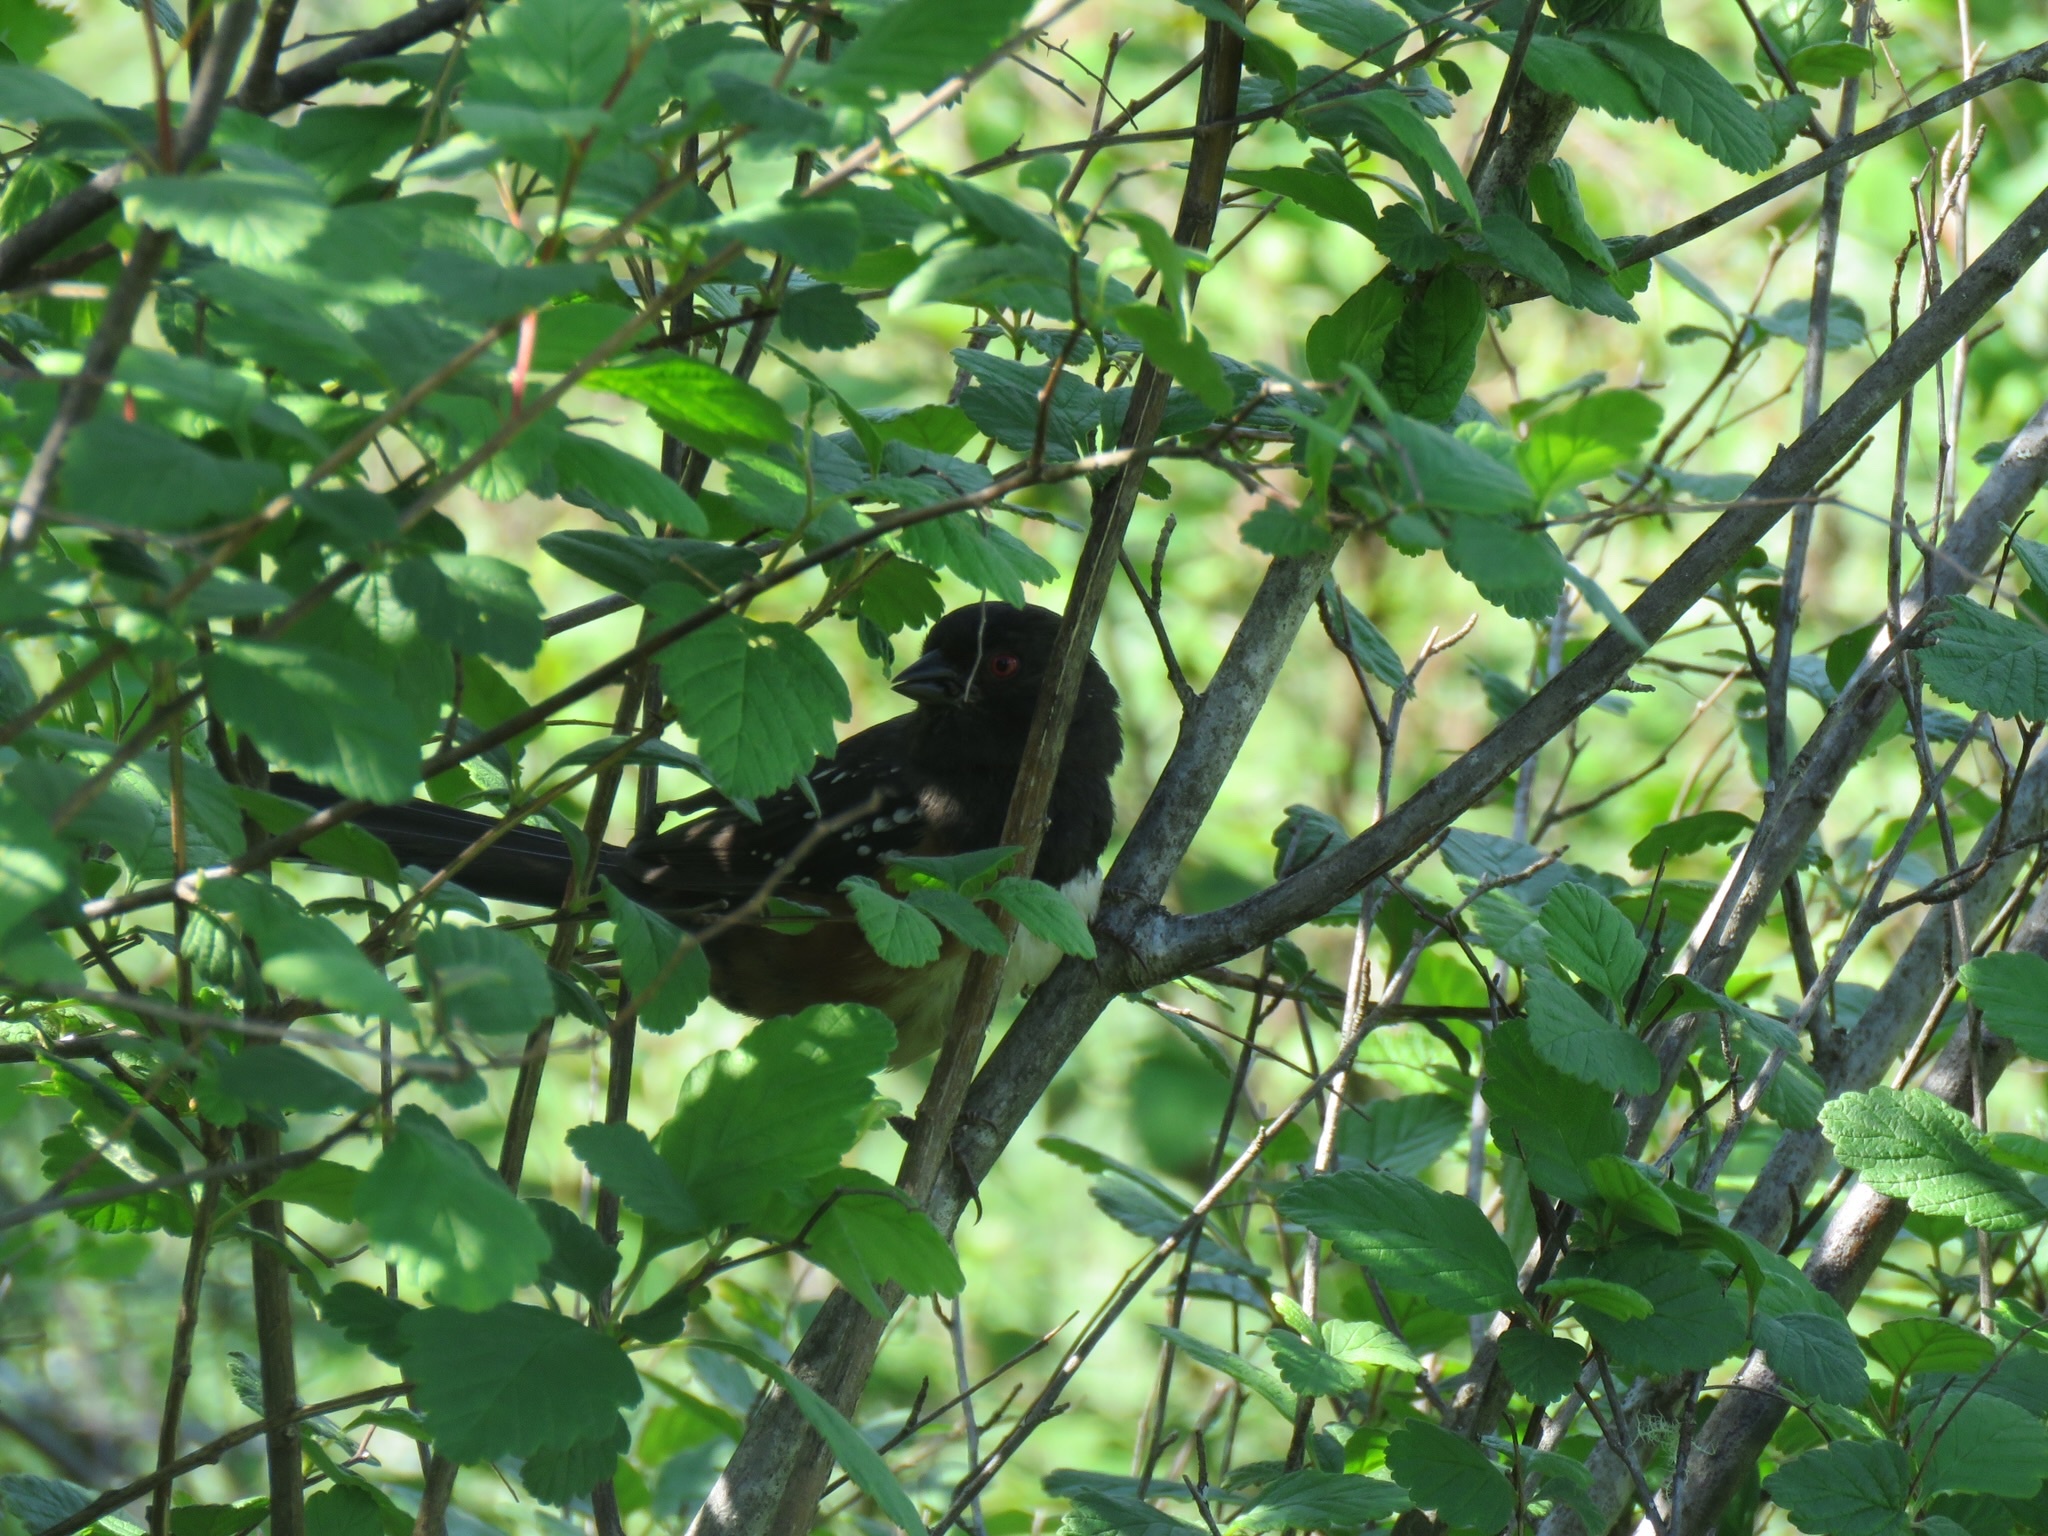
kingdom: Animalia
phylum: Chordata
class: Aves
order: Passeriformes
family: Passerellidae
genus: Pipilo
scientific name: Pipilo maculatus
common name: Spotted towhee
